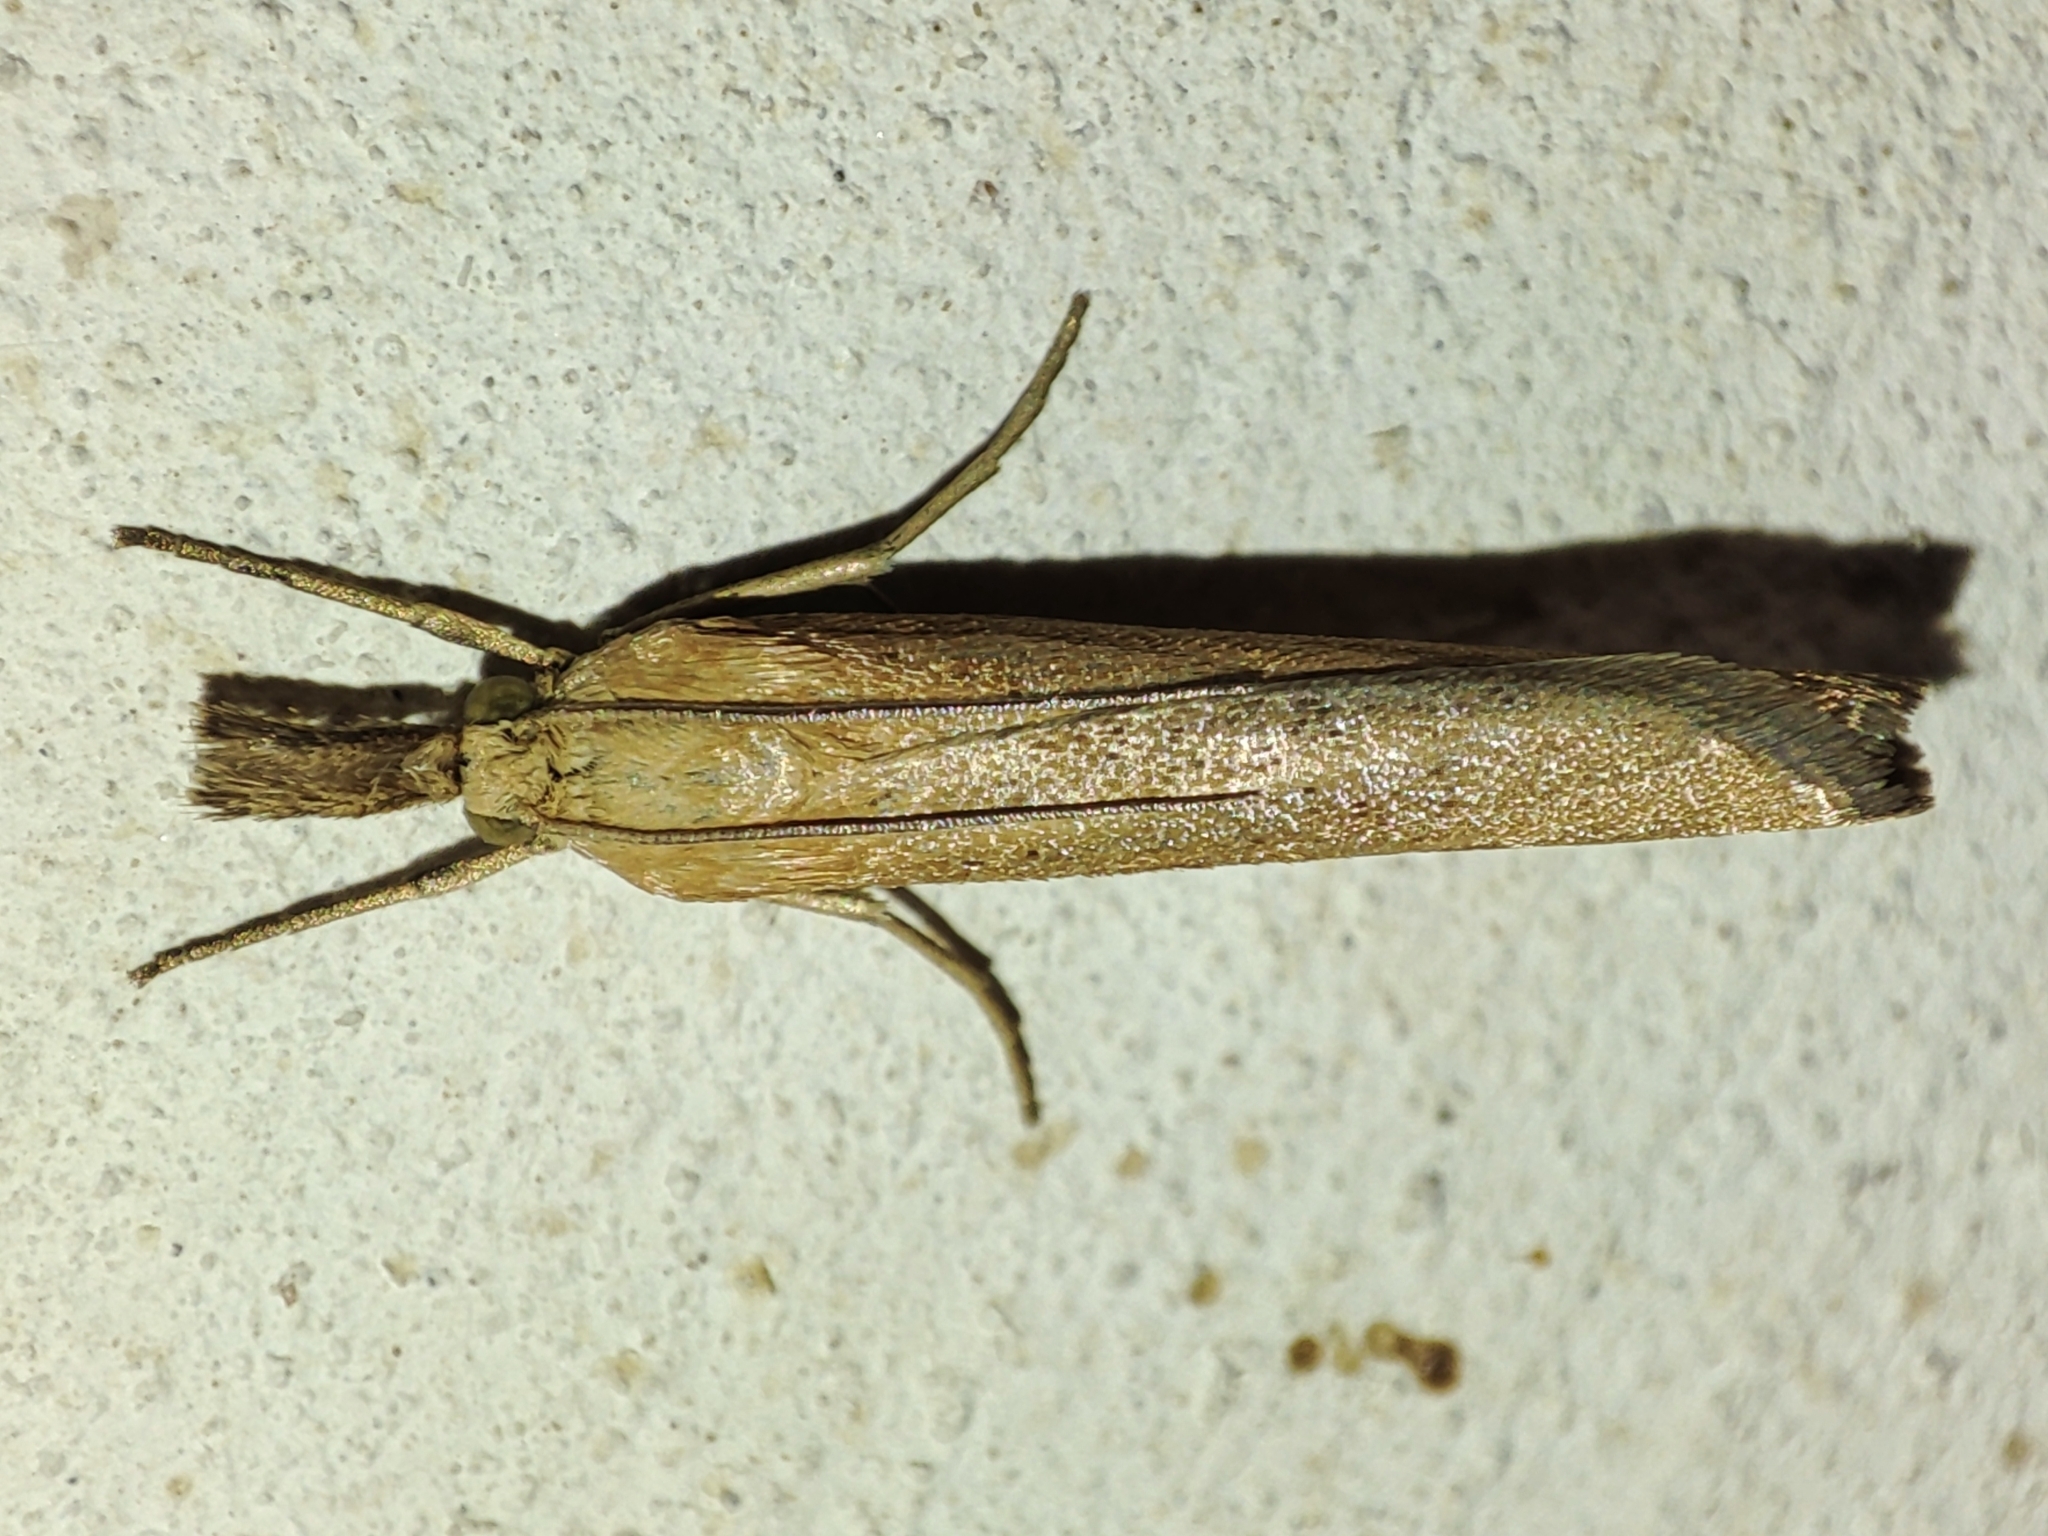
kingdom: Animalia
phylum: Arthropoda
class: Insecta
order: Lepidoptera
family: Crambidae
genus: Pediasia
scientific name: Pediasia luteella
